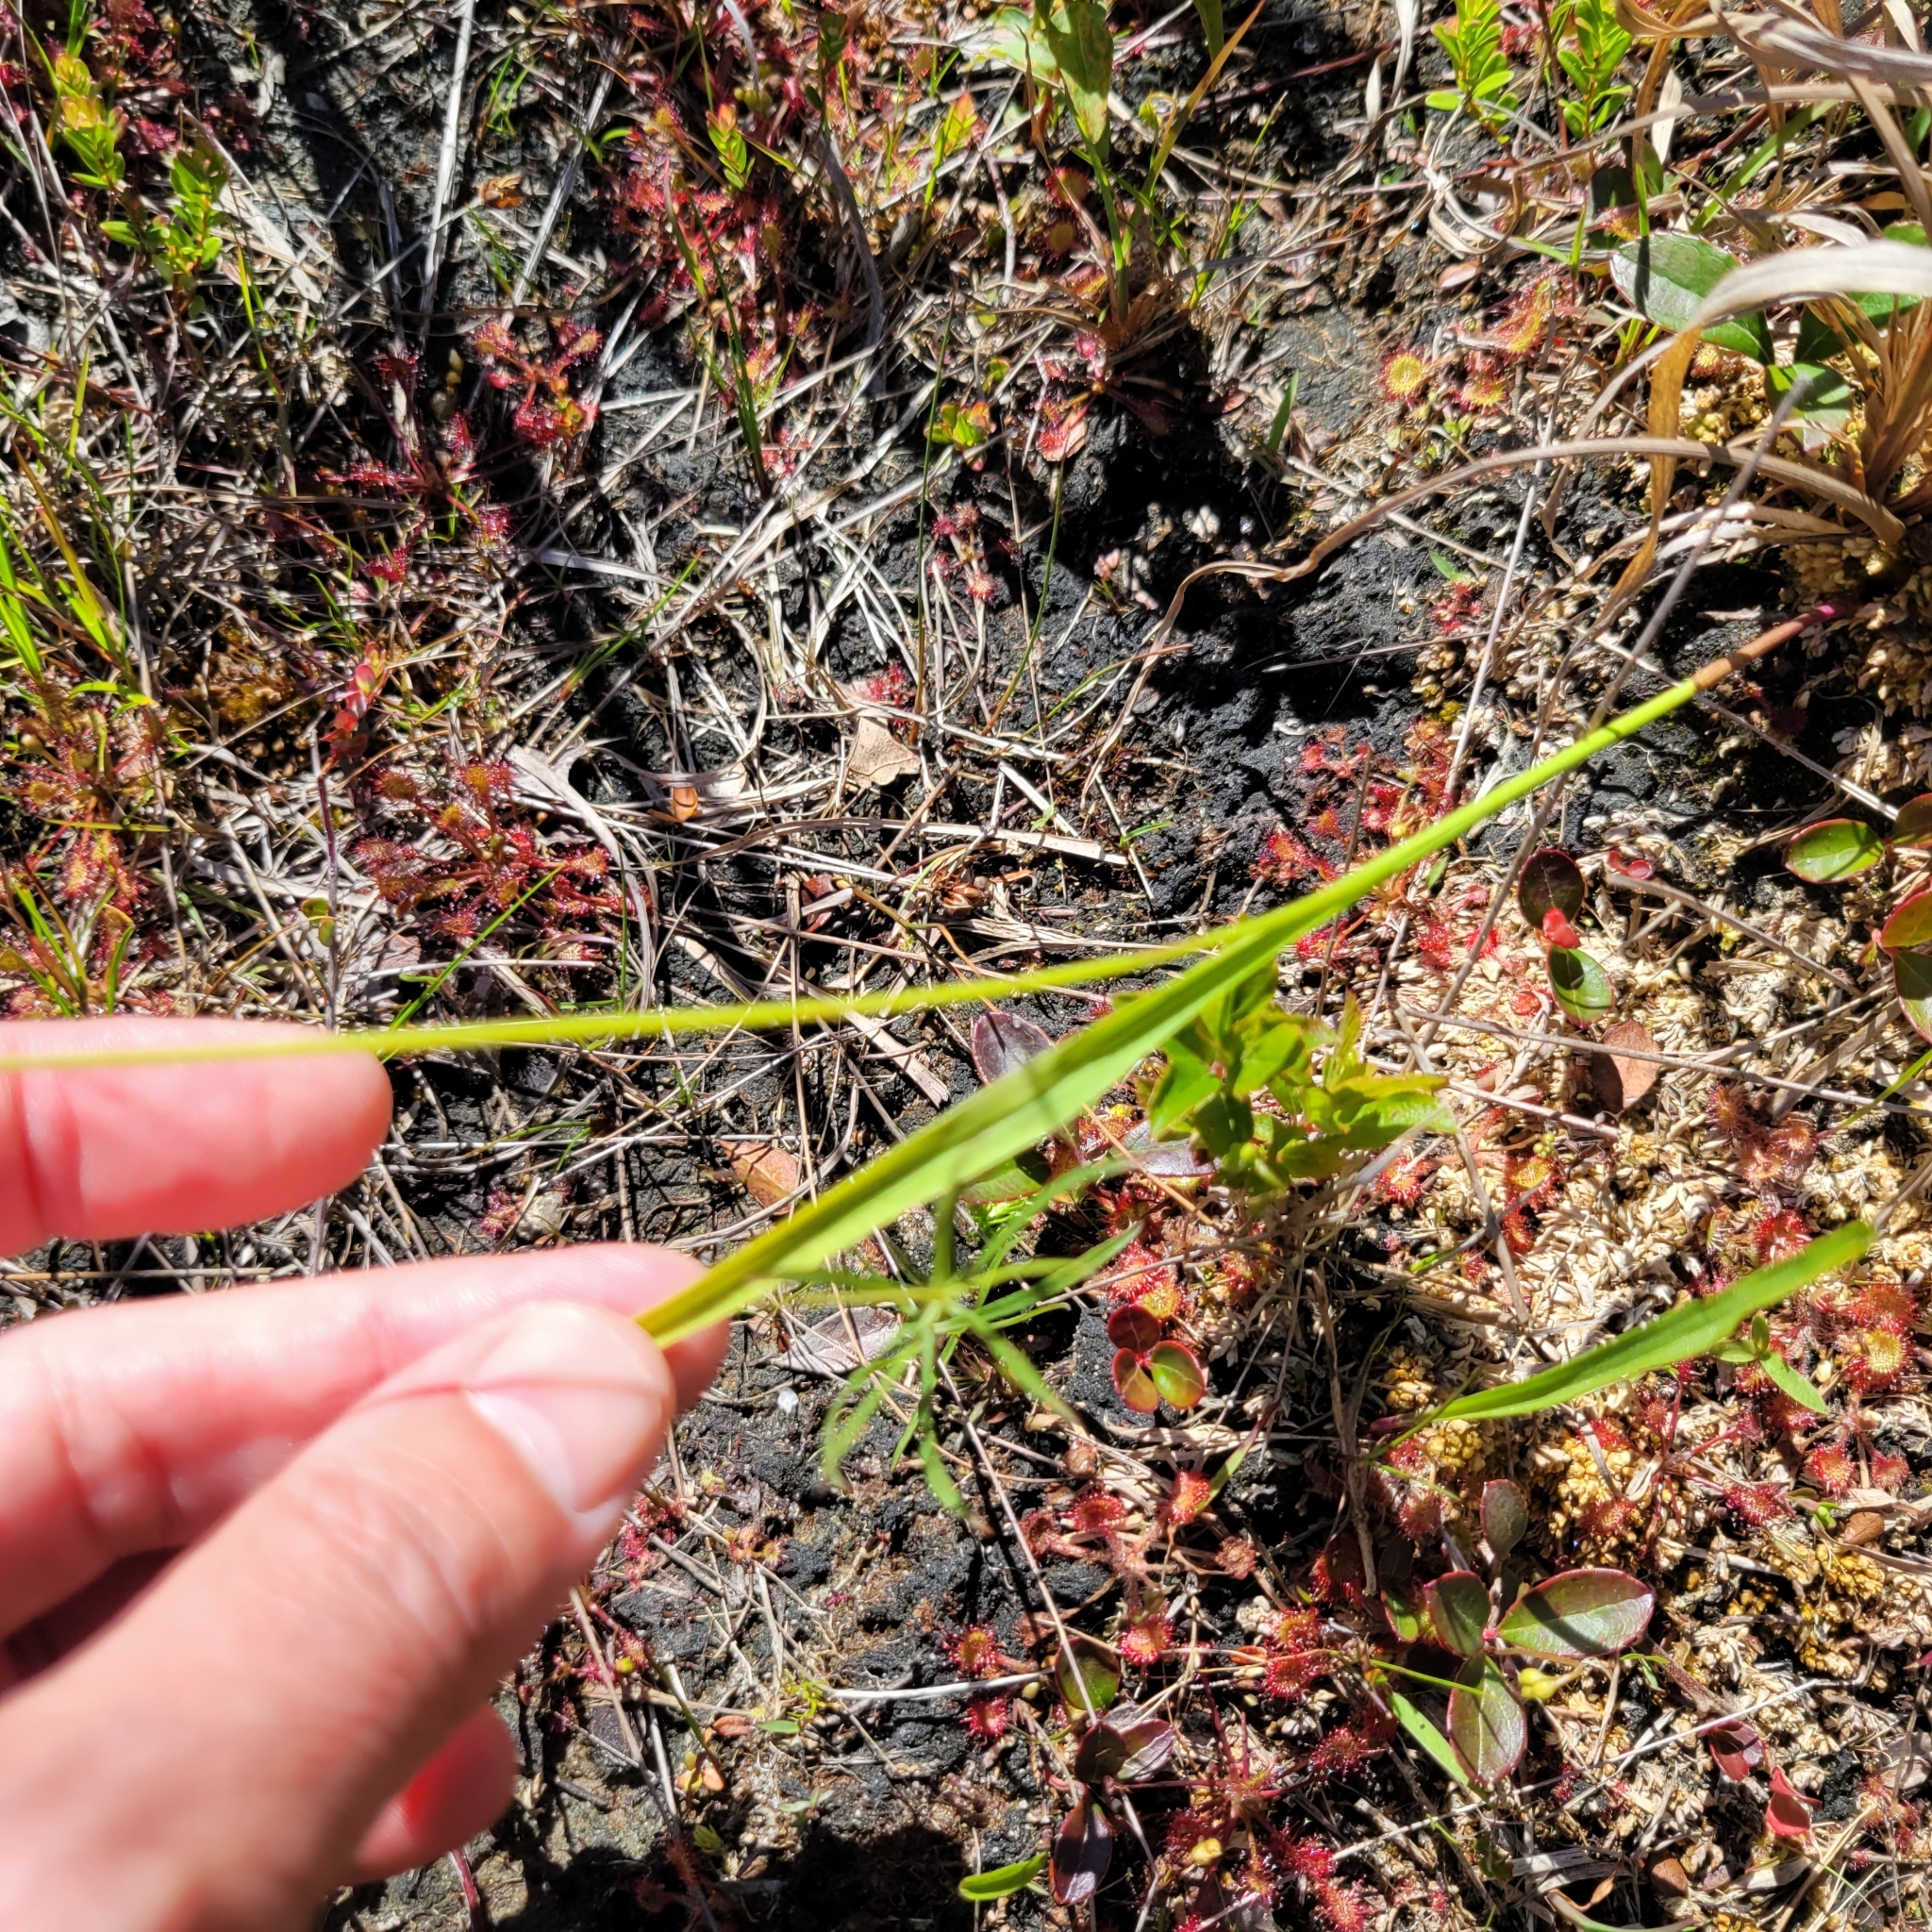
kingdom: Plantae
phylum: Tracheophyta
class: Liliopsida
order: Asparagales
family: Orchidaceae
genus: Calopogon
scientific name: Calopogon tuberosus
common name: Grass-pink
